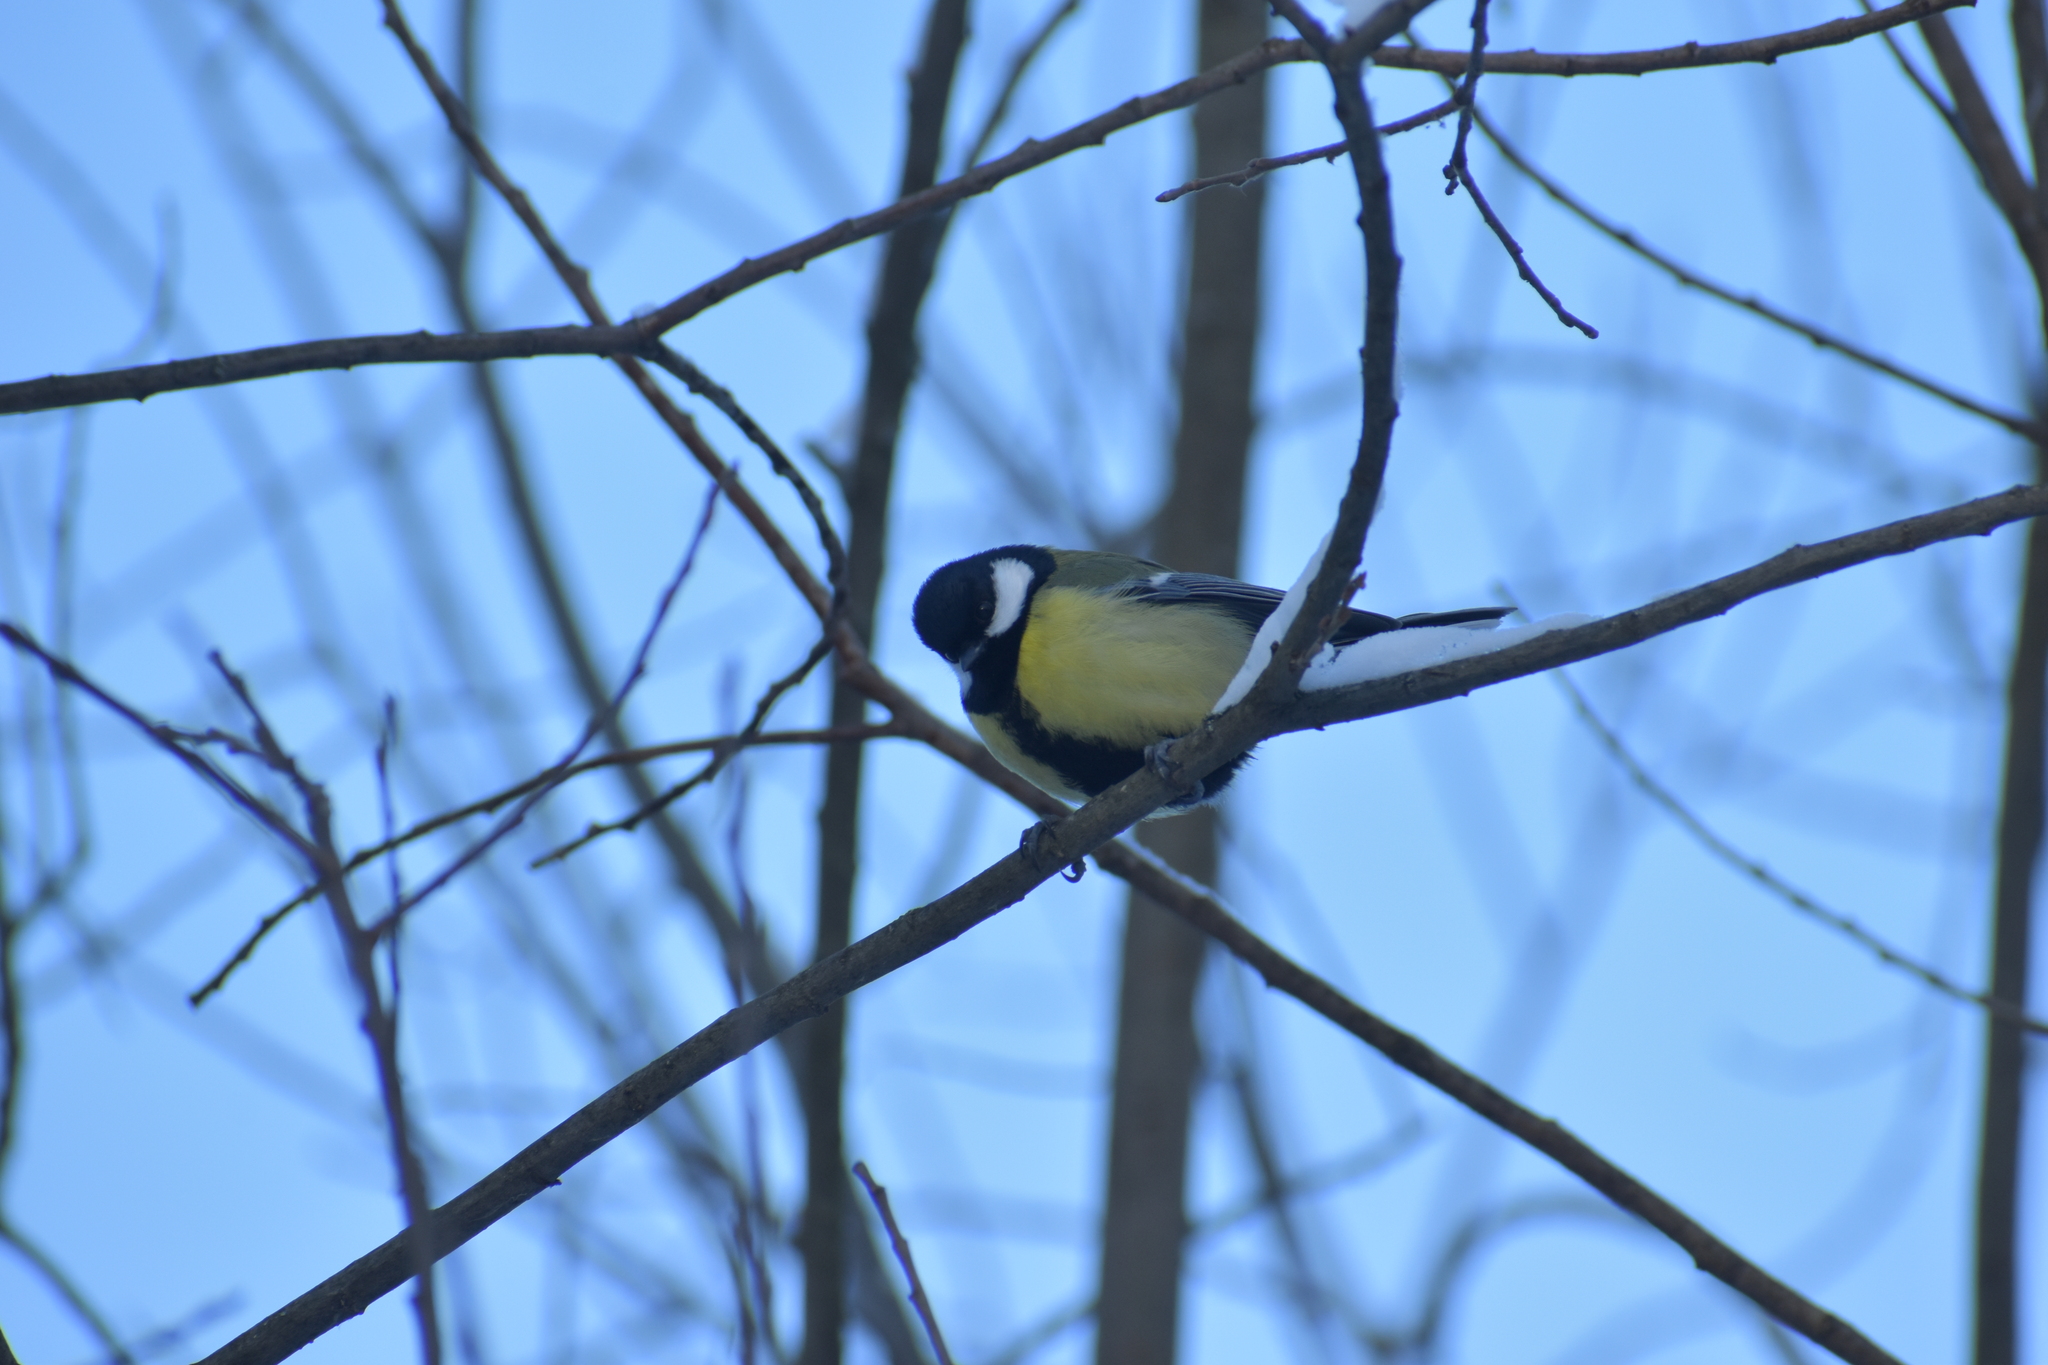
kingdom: Animalia
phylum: Chordata
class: Aves
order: Passeriformes
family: Paridae
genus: Parus
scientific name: Parus major
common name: Great tit
